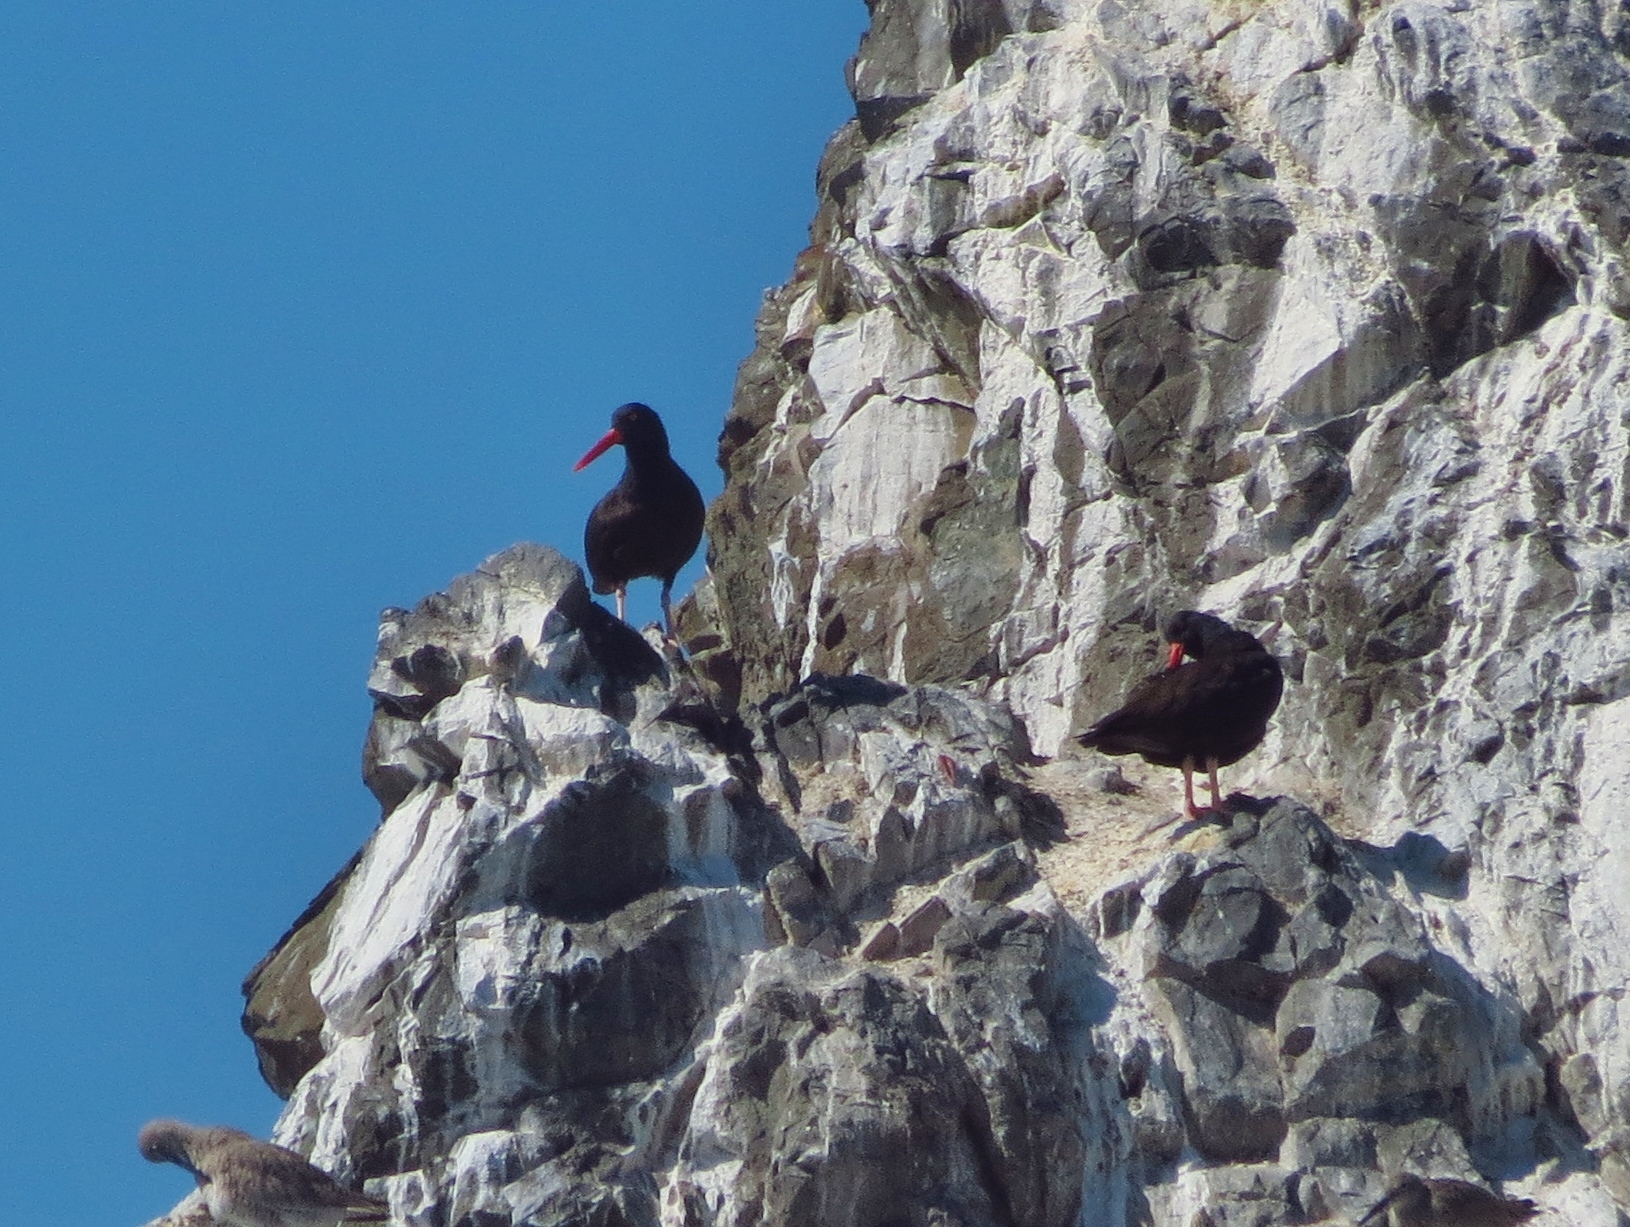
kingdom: Animalia
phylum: Chordata
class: Aves
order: Charadriiformes
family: Haematopodidae
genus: Haematopus
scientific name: Haematopus bachmani
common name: Black oystercatcher
